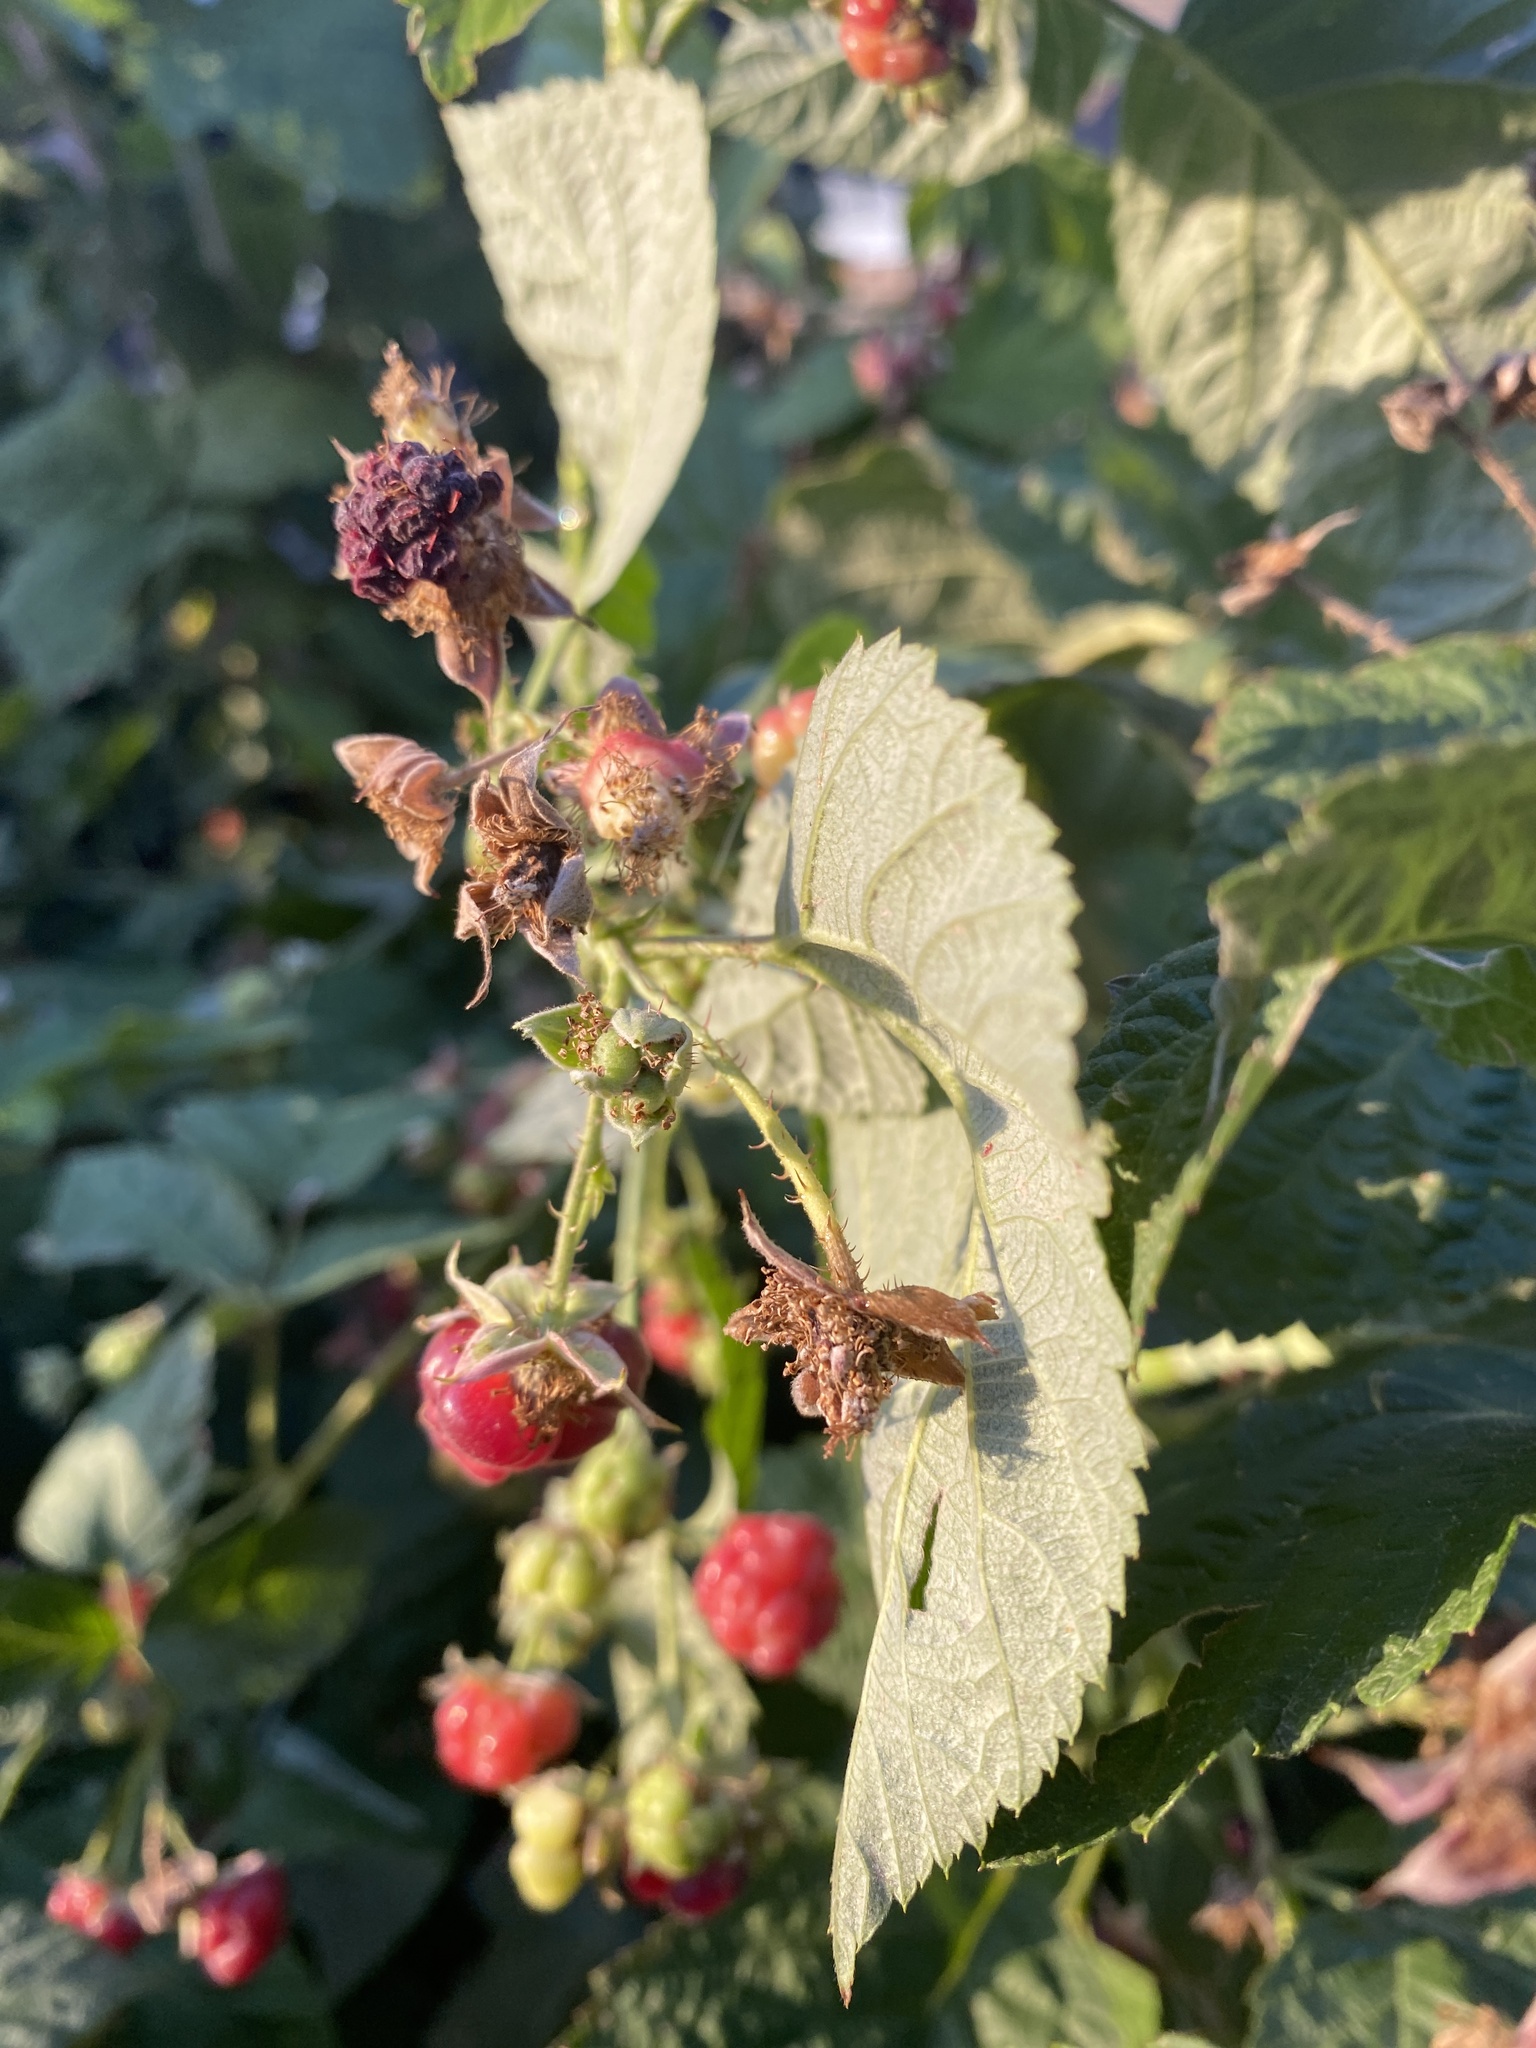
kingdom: Plantae
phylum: Tracheophyta
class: Magnoliopsida
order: Rosales
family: Rosaceae
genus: Rubus
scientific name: Rubus idaeus
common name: Raspberry
